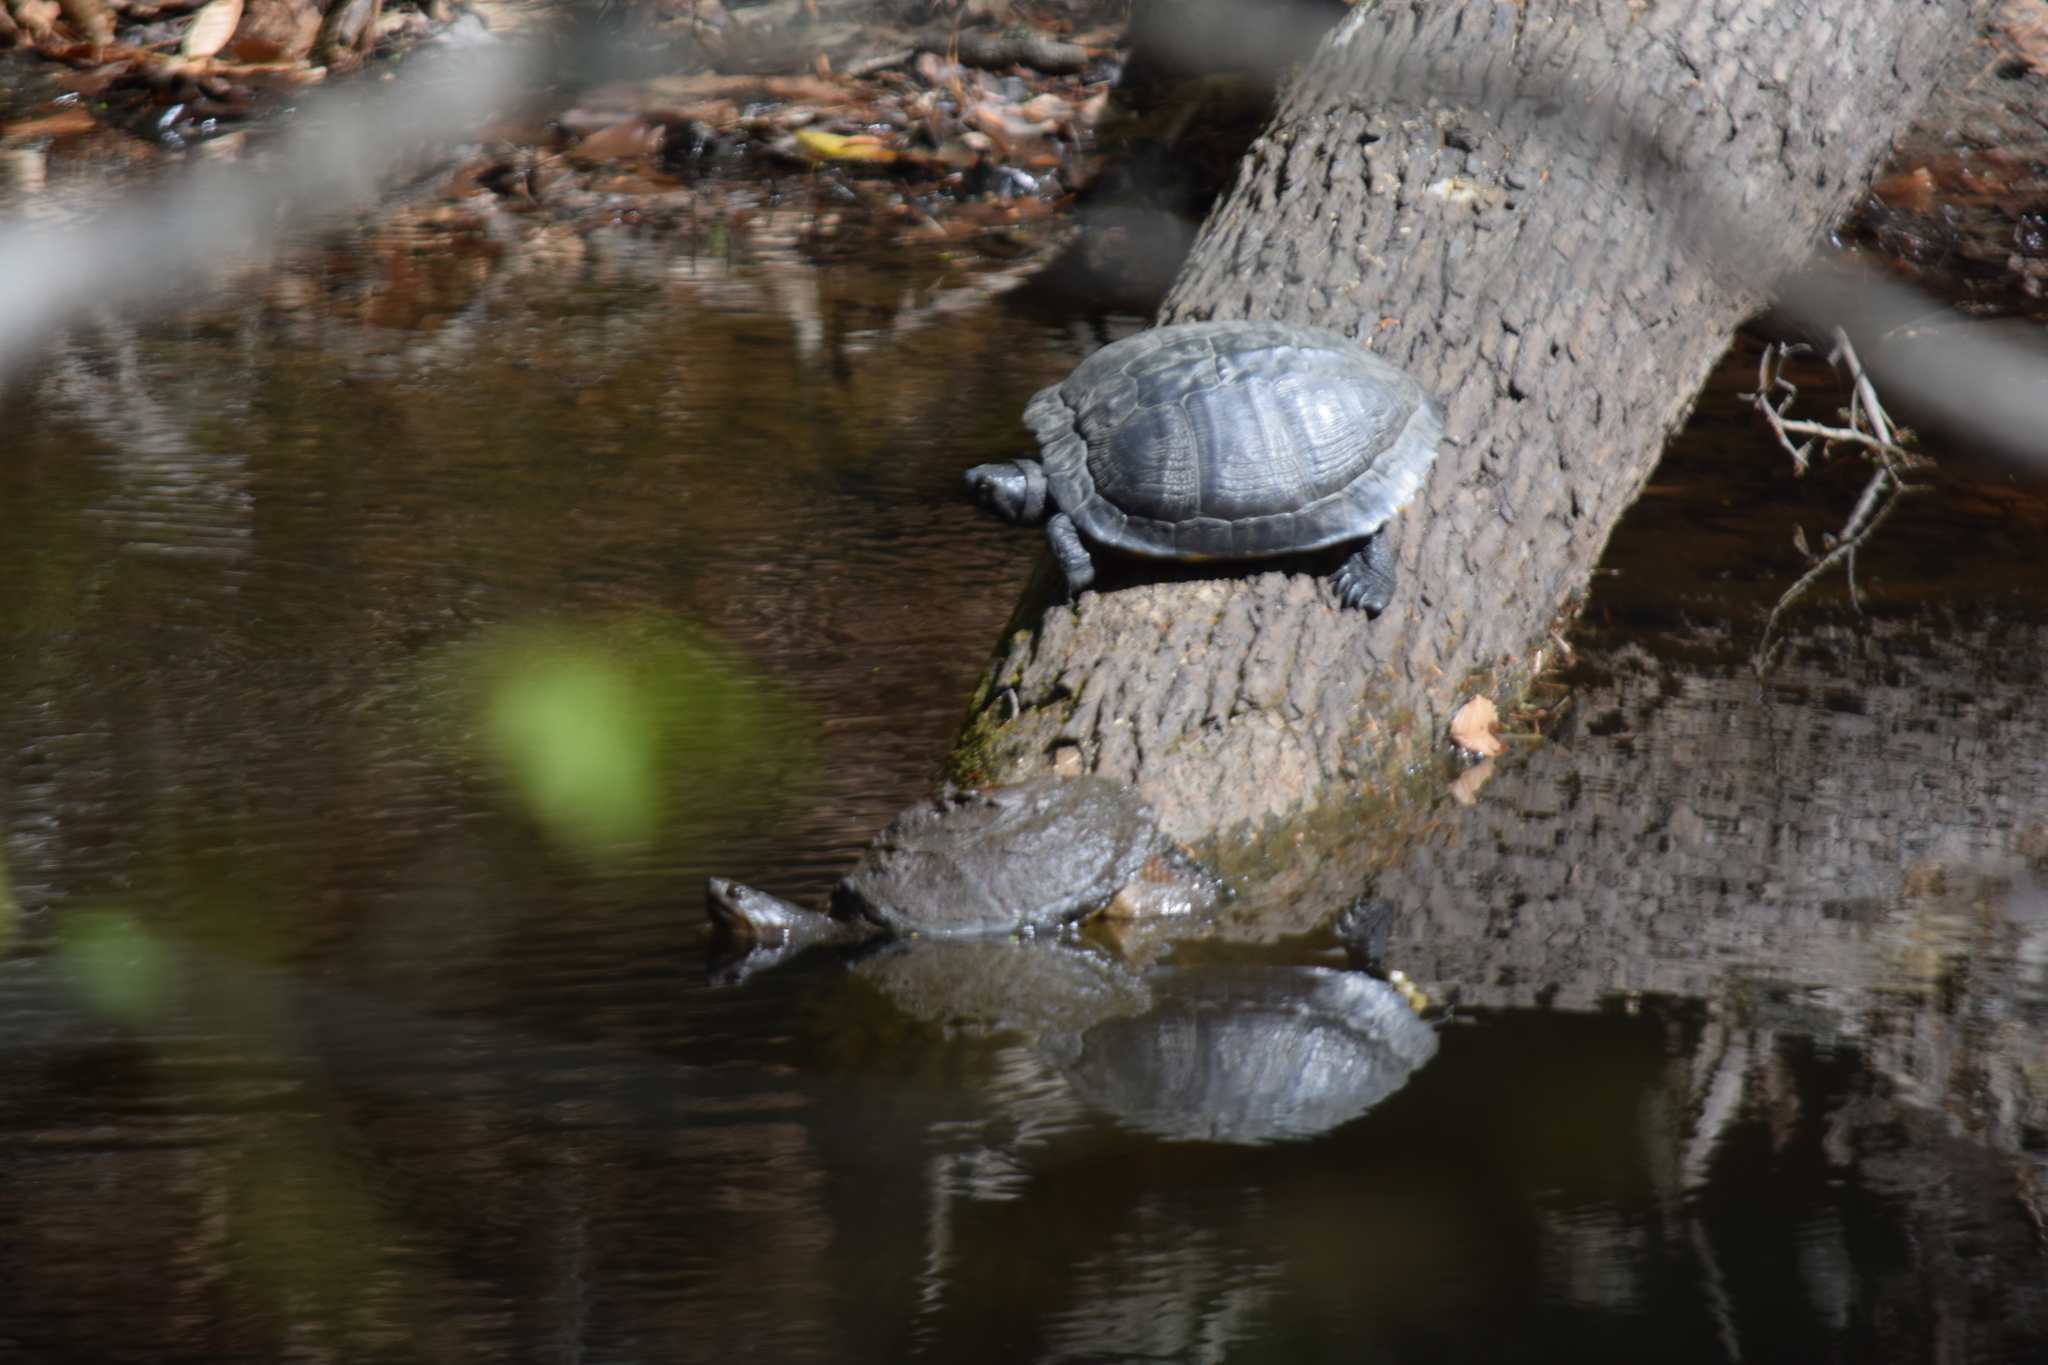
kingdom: Animalia
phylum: Chordata
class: Testudines
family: Emydidae
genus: Trachemys
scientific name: Trachemys scripta
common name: Slider
